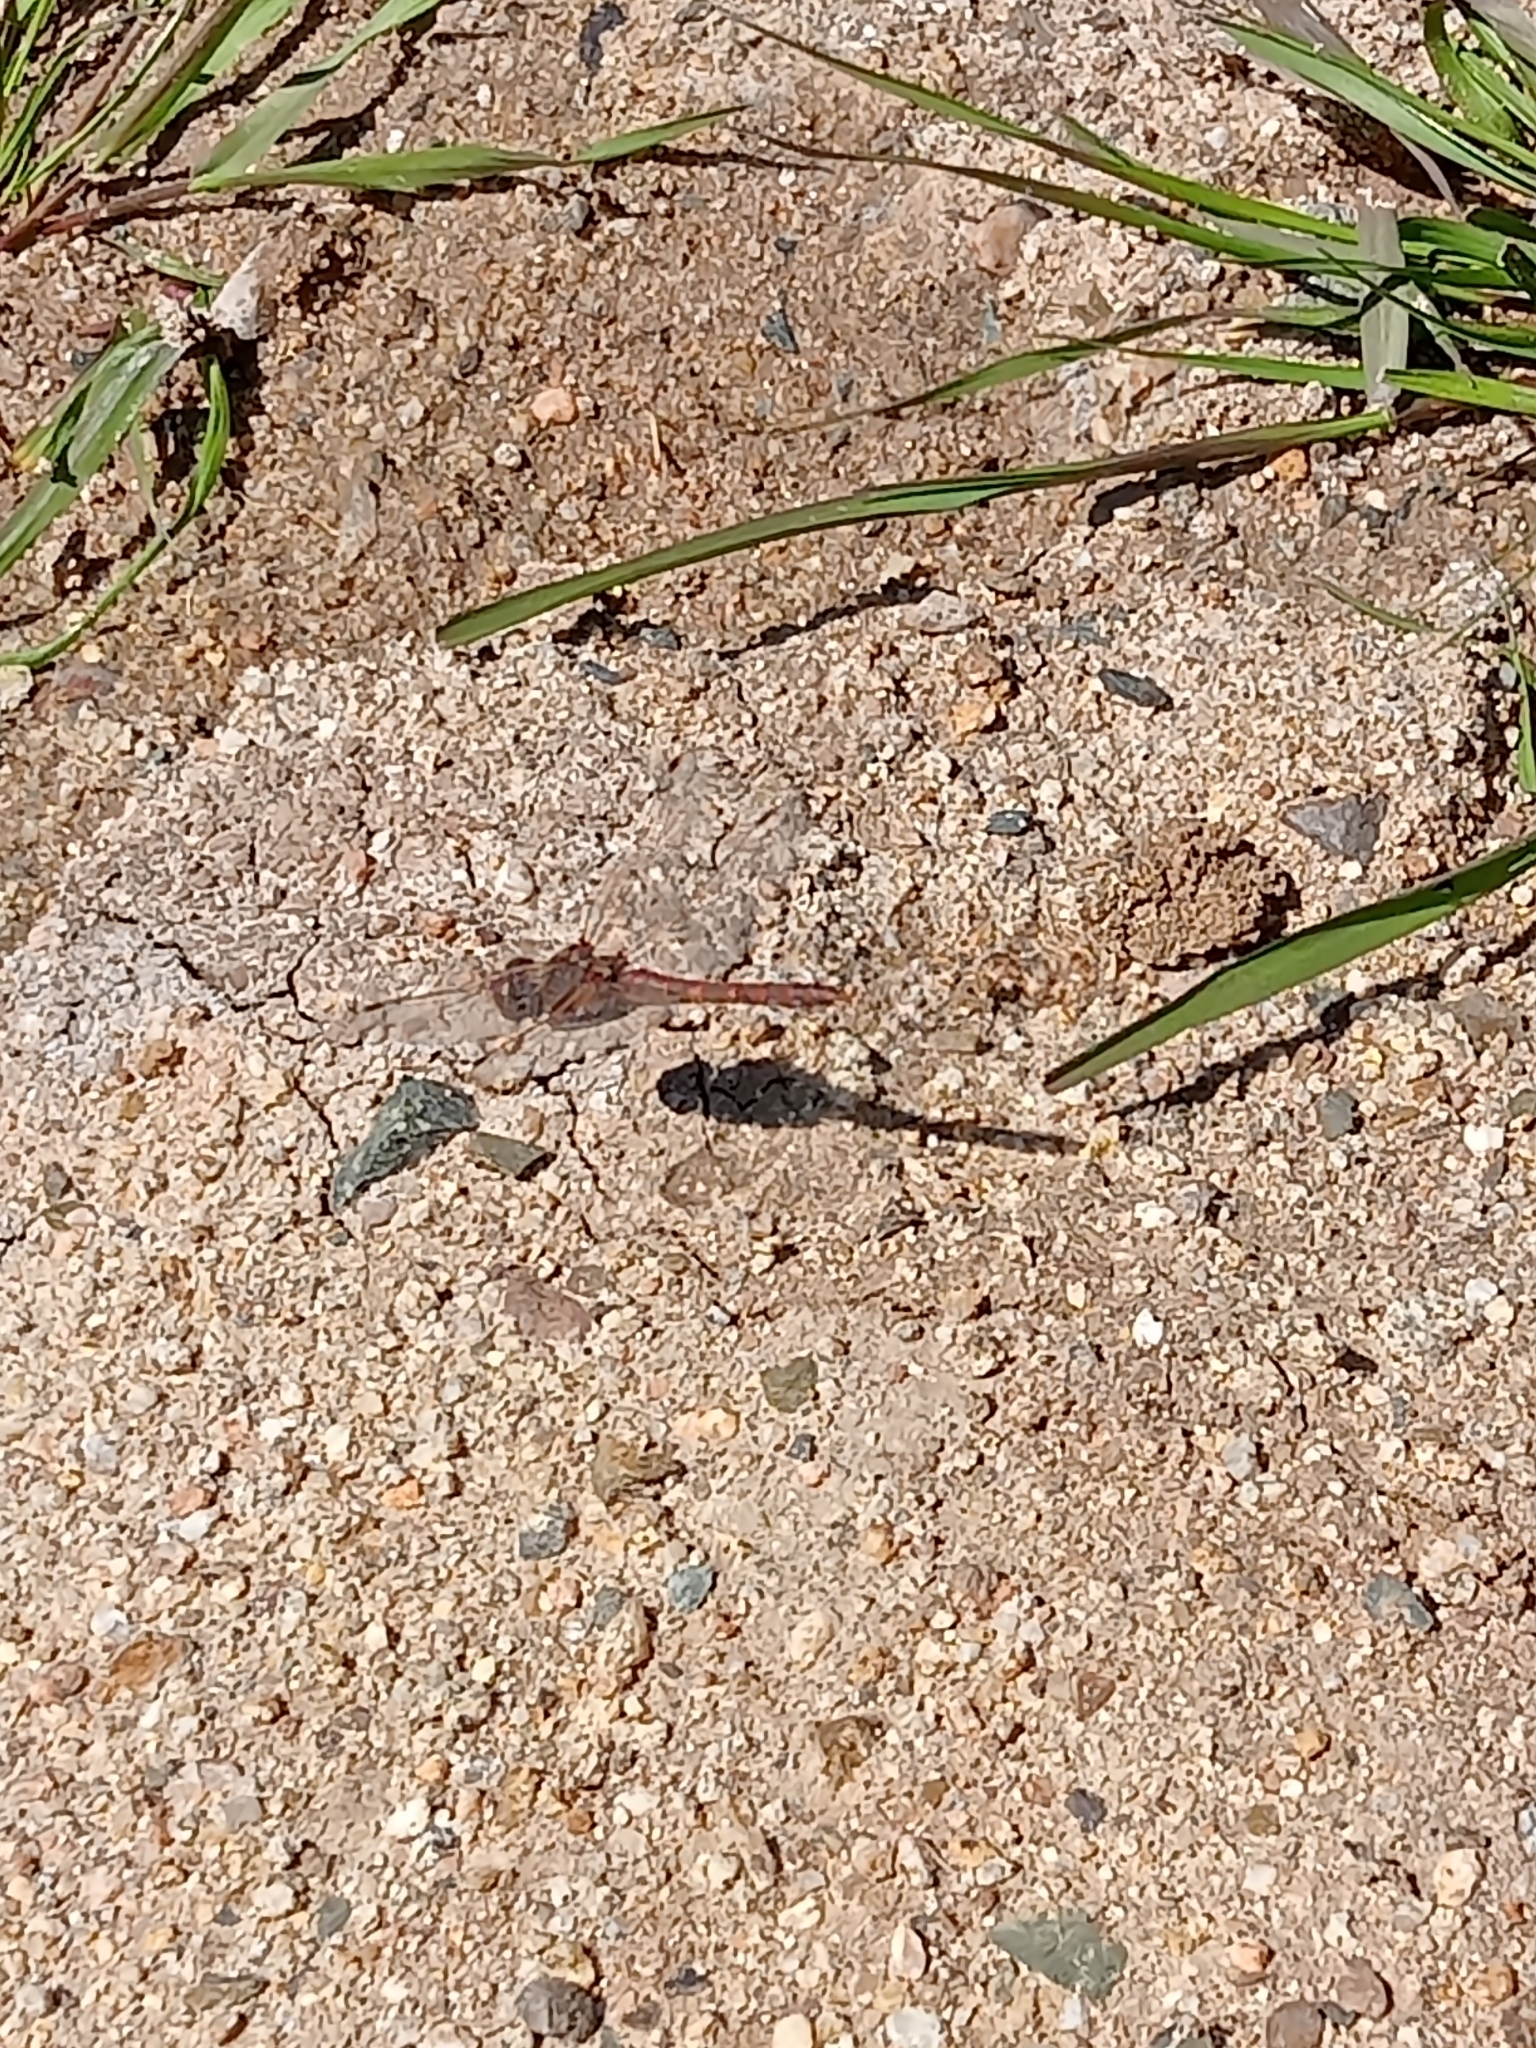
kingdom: Animalia
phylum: Arthropoda
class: Insecta
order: Odonata
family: Libellulidae
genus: Sympetrum
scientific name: Sympetrum corruptum
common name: Variegated meadowhawk
